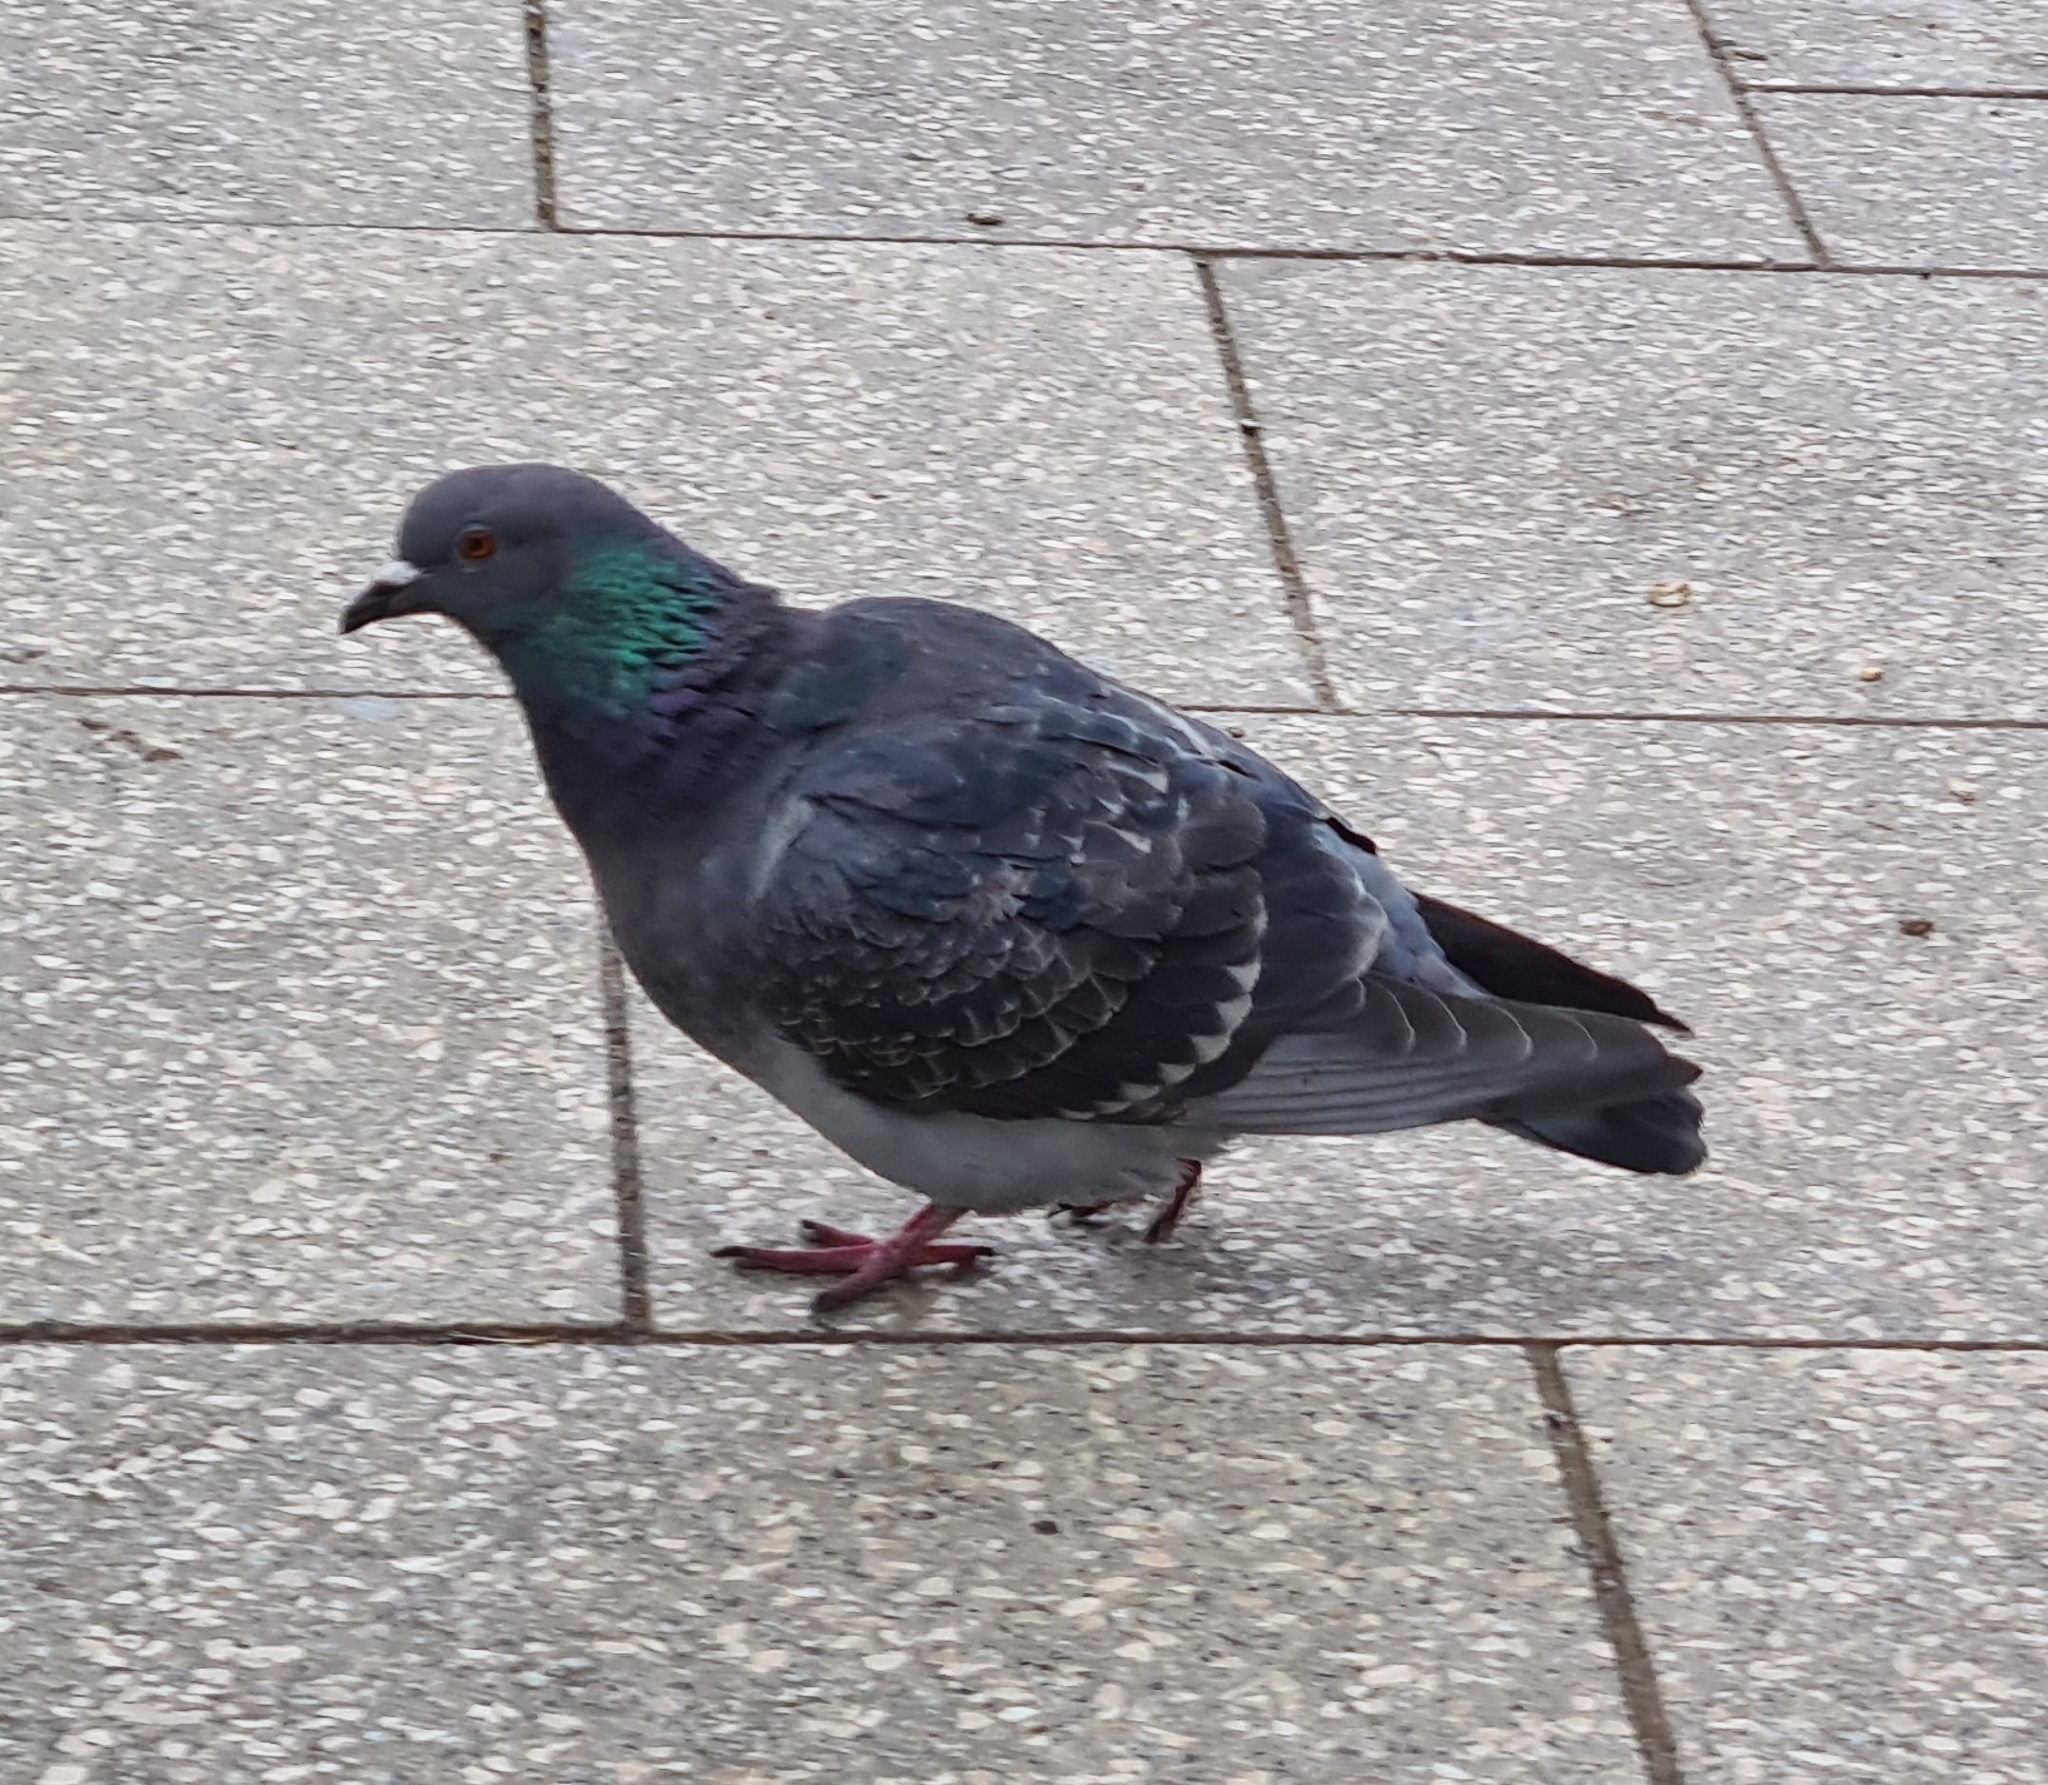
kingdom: Animalia
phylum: Chordata
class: Aves
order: Columbiformes
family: Columbidae
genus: Columba
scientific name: Columba livia
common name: Rock pigeon
